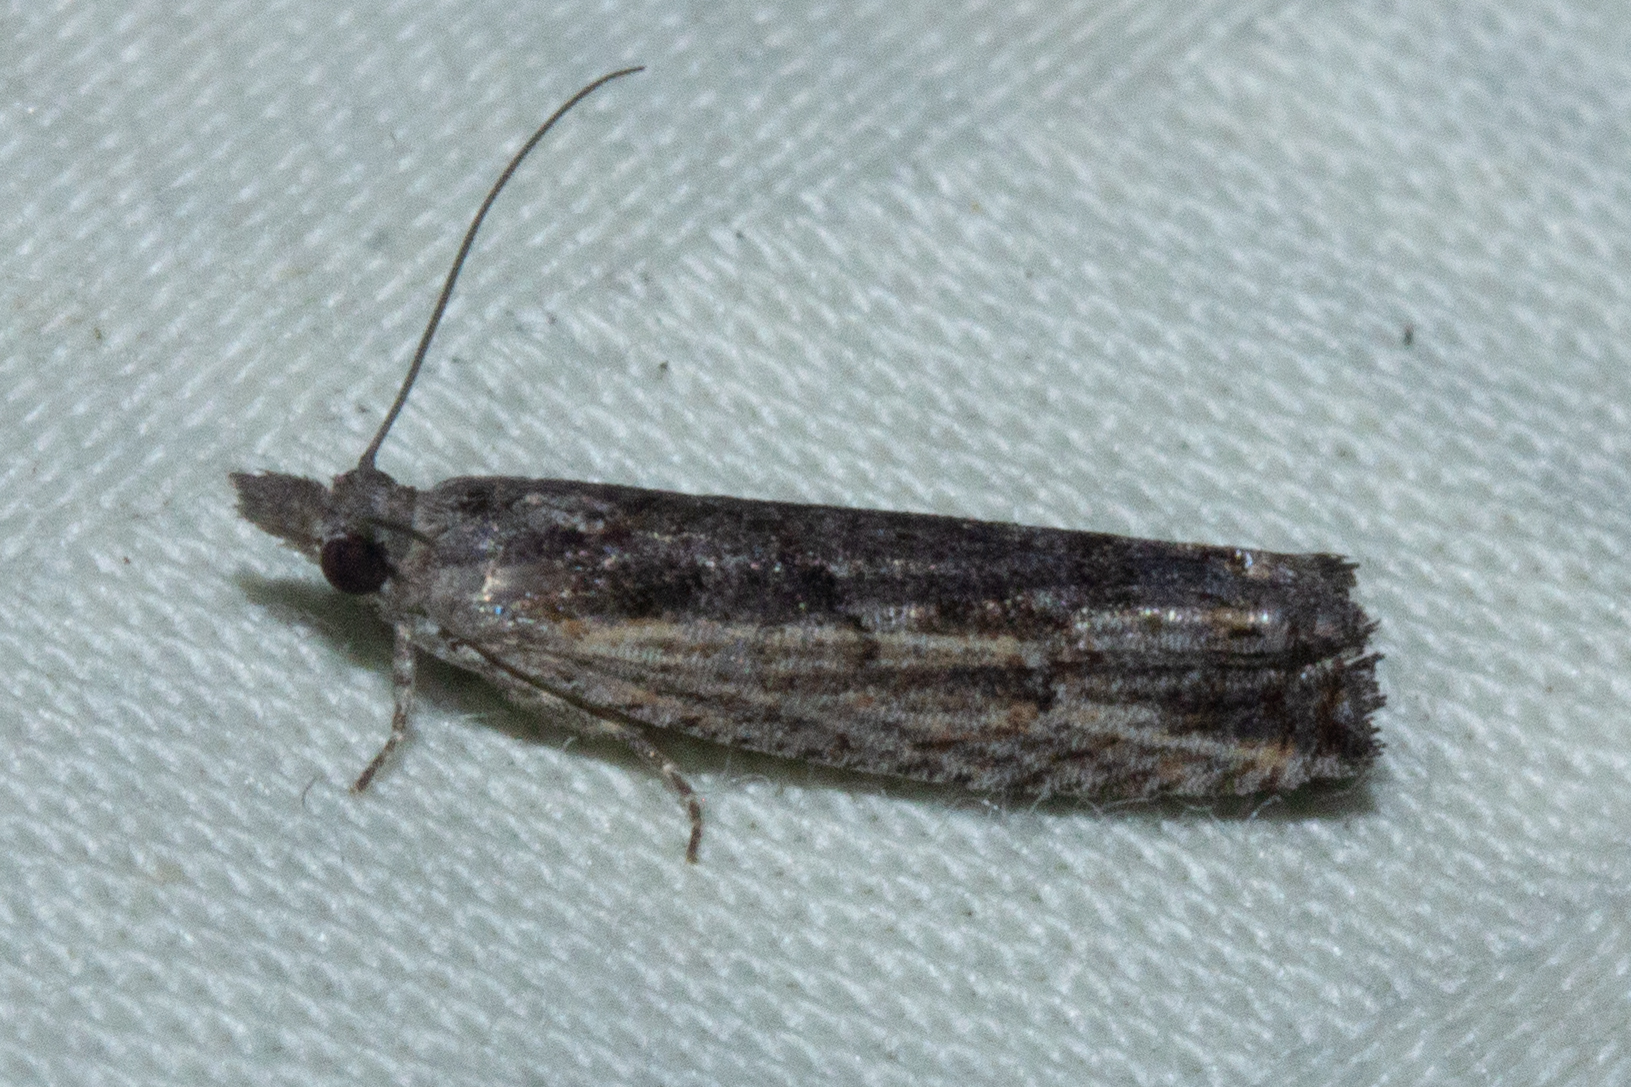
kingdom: Animalia
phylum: Arthropoda
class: Insecta
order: Lepidoptera
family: Tortricidae
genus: Strepsicrates
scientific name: Strepsicrates ejectana
